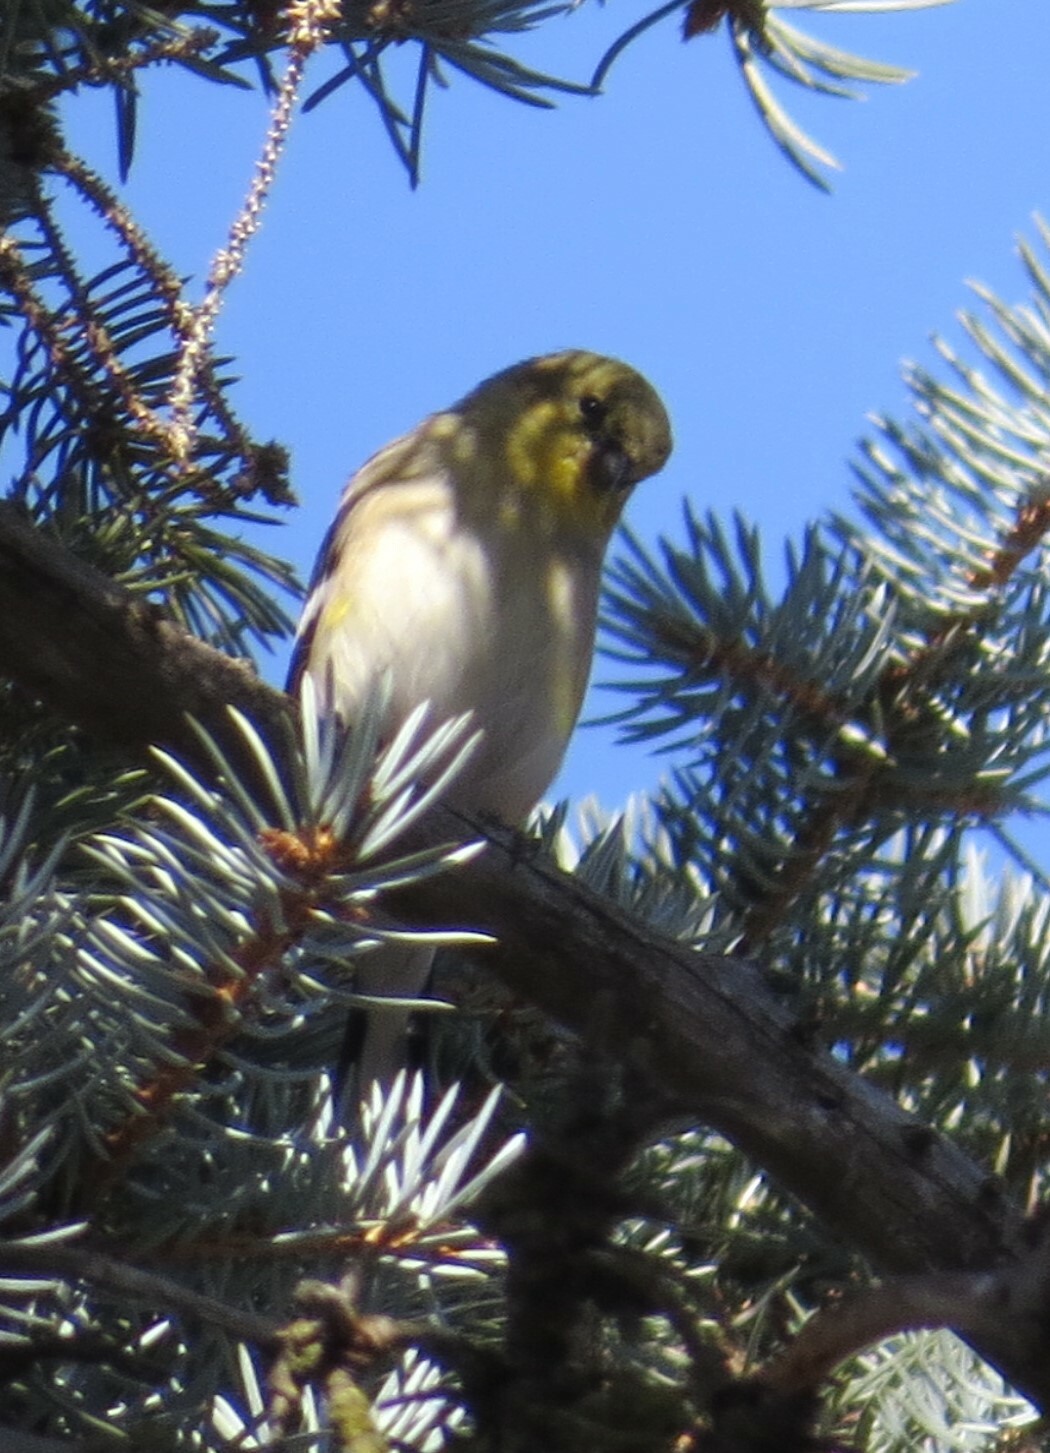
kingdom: Animalia
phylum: Chordata
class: Aves
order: Passeriformes
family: Fringillidae
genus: Spinus
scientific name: Spinus tristis
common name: American goldfinch
